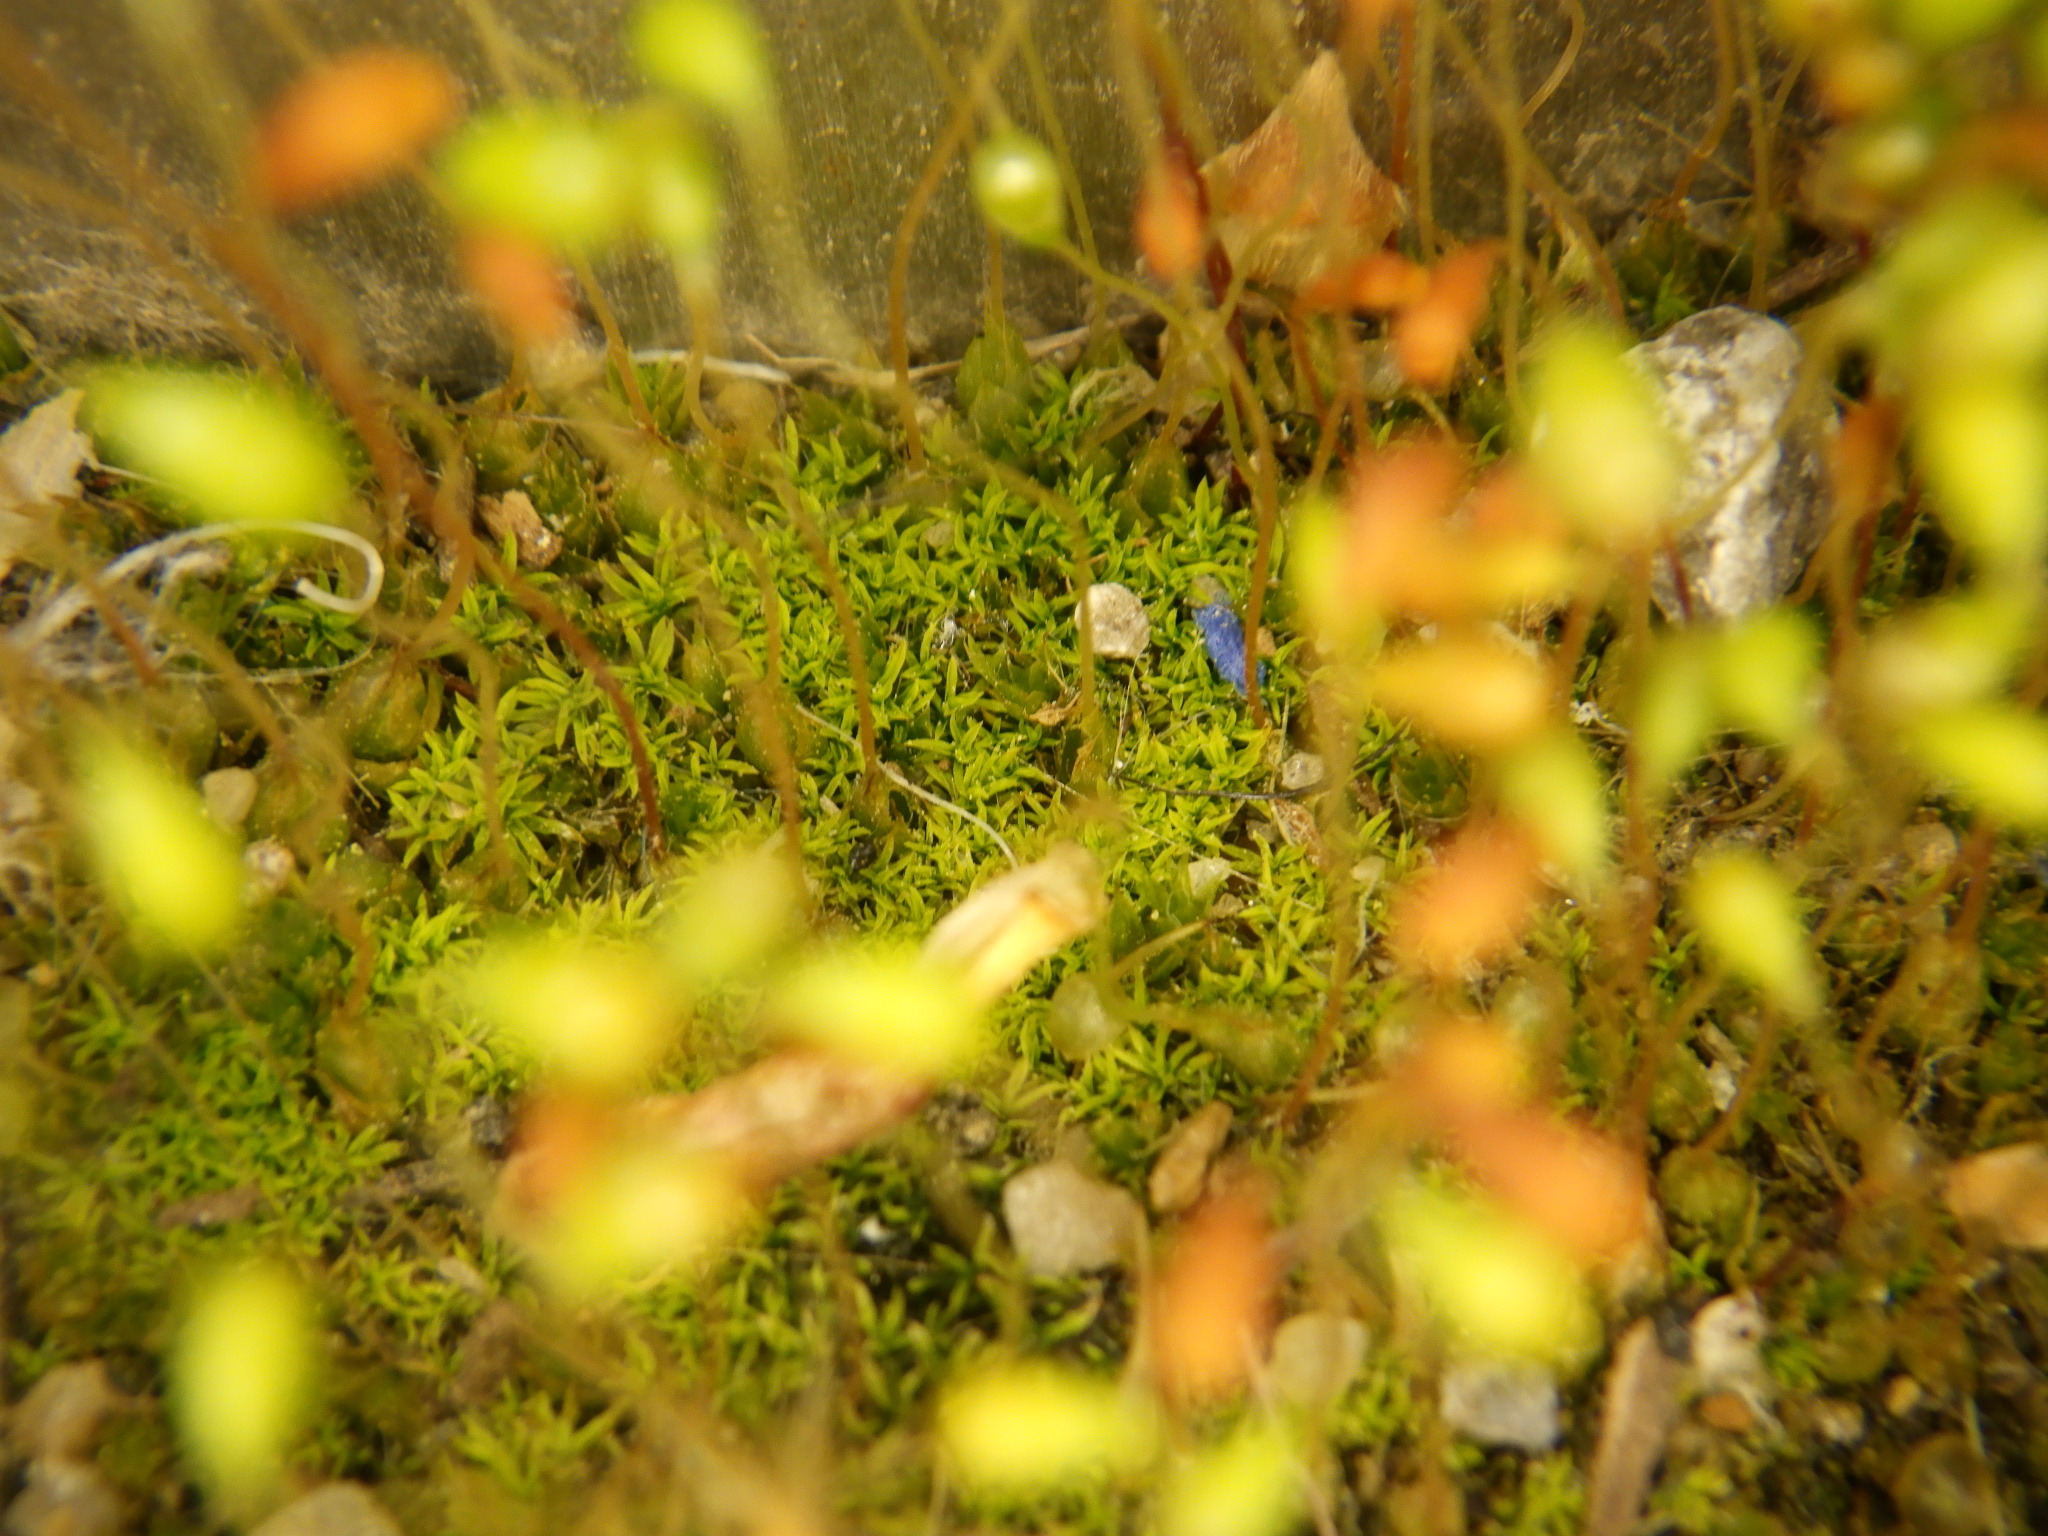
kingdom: Plantae
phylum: Bryophyta
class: Bryopsida
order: Funariales
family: Funariaceae
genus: Funaria
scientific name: Funaria hygrometrica
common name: Common cord moss
